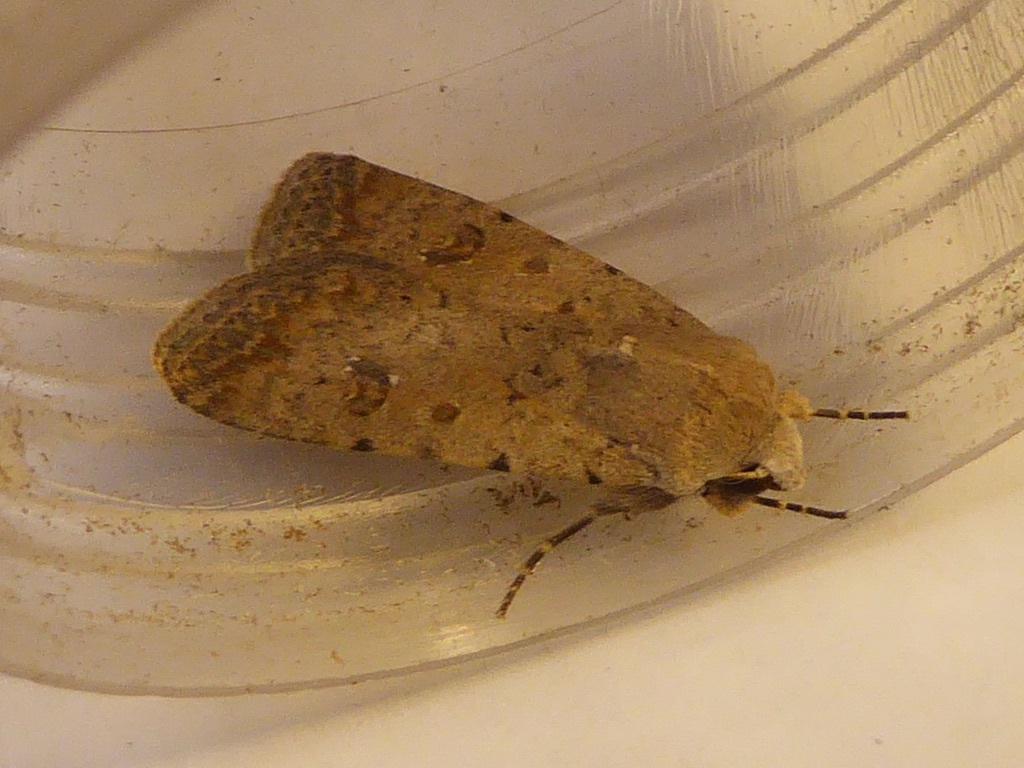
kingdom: Animalia
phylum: Arthropoda
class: Insecta
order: Lepidoptera
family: Noctuidae
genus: Caradrina
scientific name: Caradrina clavipalpis
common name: Pale mottled willow
